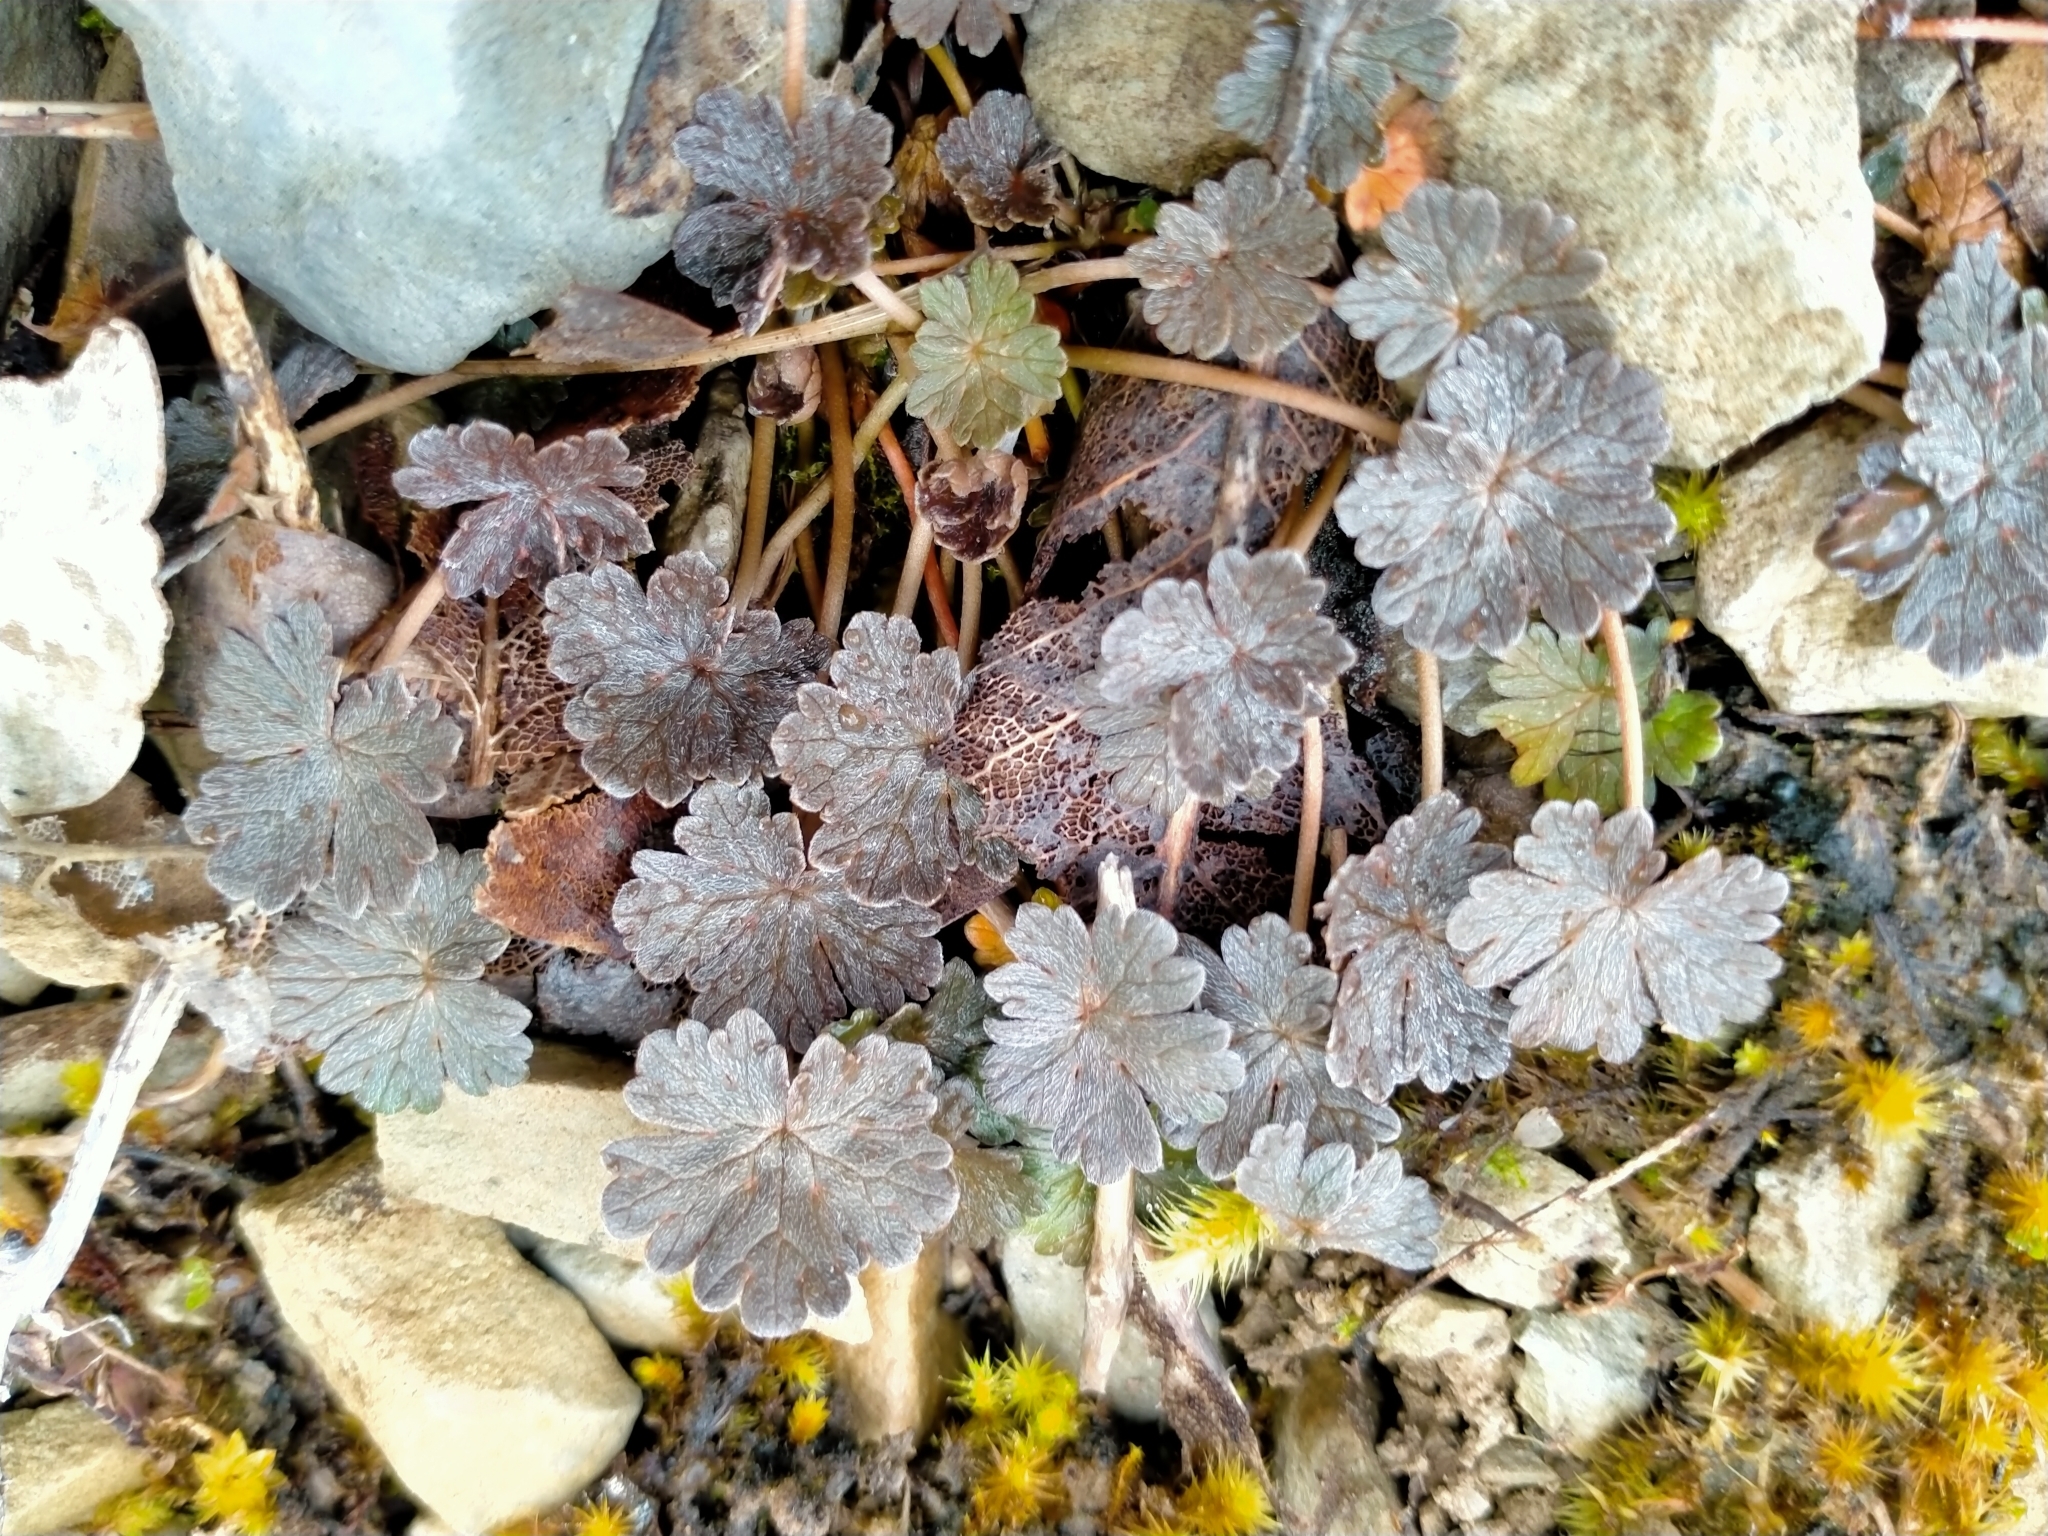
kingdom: Plantae
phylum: Tracheophyta
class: Magnoliopsida
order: Geraniales
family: Geraniaceae
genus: Geranium
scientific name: Geranium brevicaule
